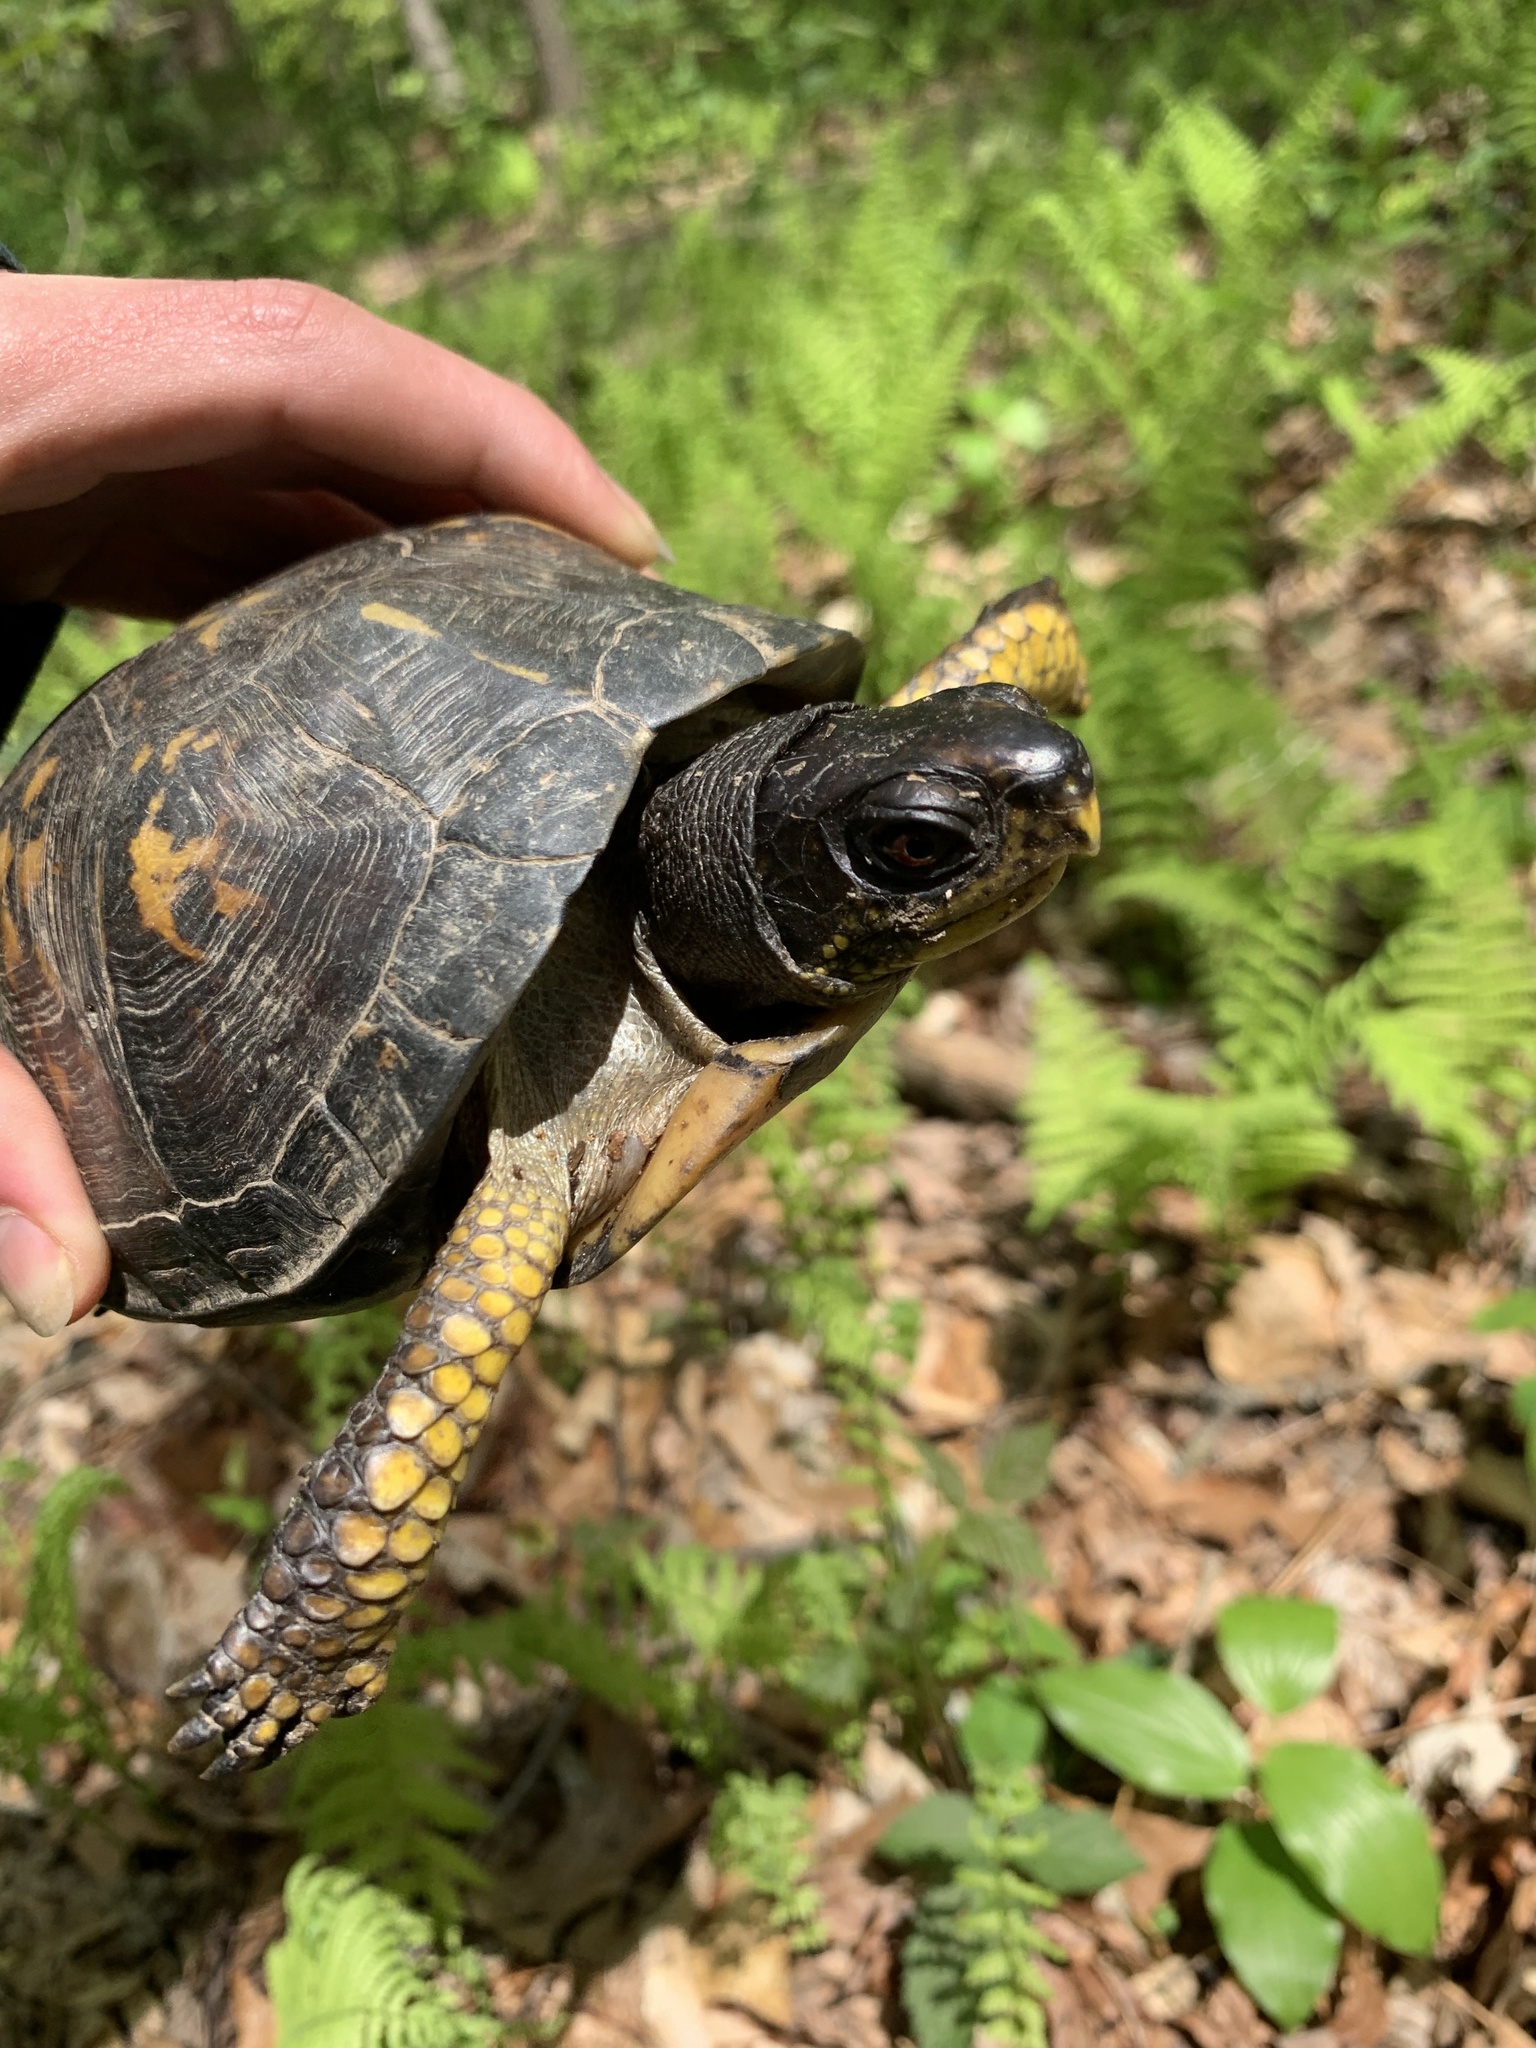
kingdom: Animalia
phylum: Chordata
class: Testudines
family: Emydidae
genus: Terrapene
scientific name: Terrapene carolina
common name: Common box turtle
